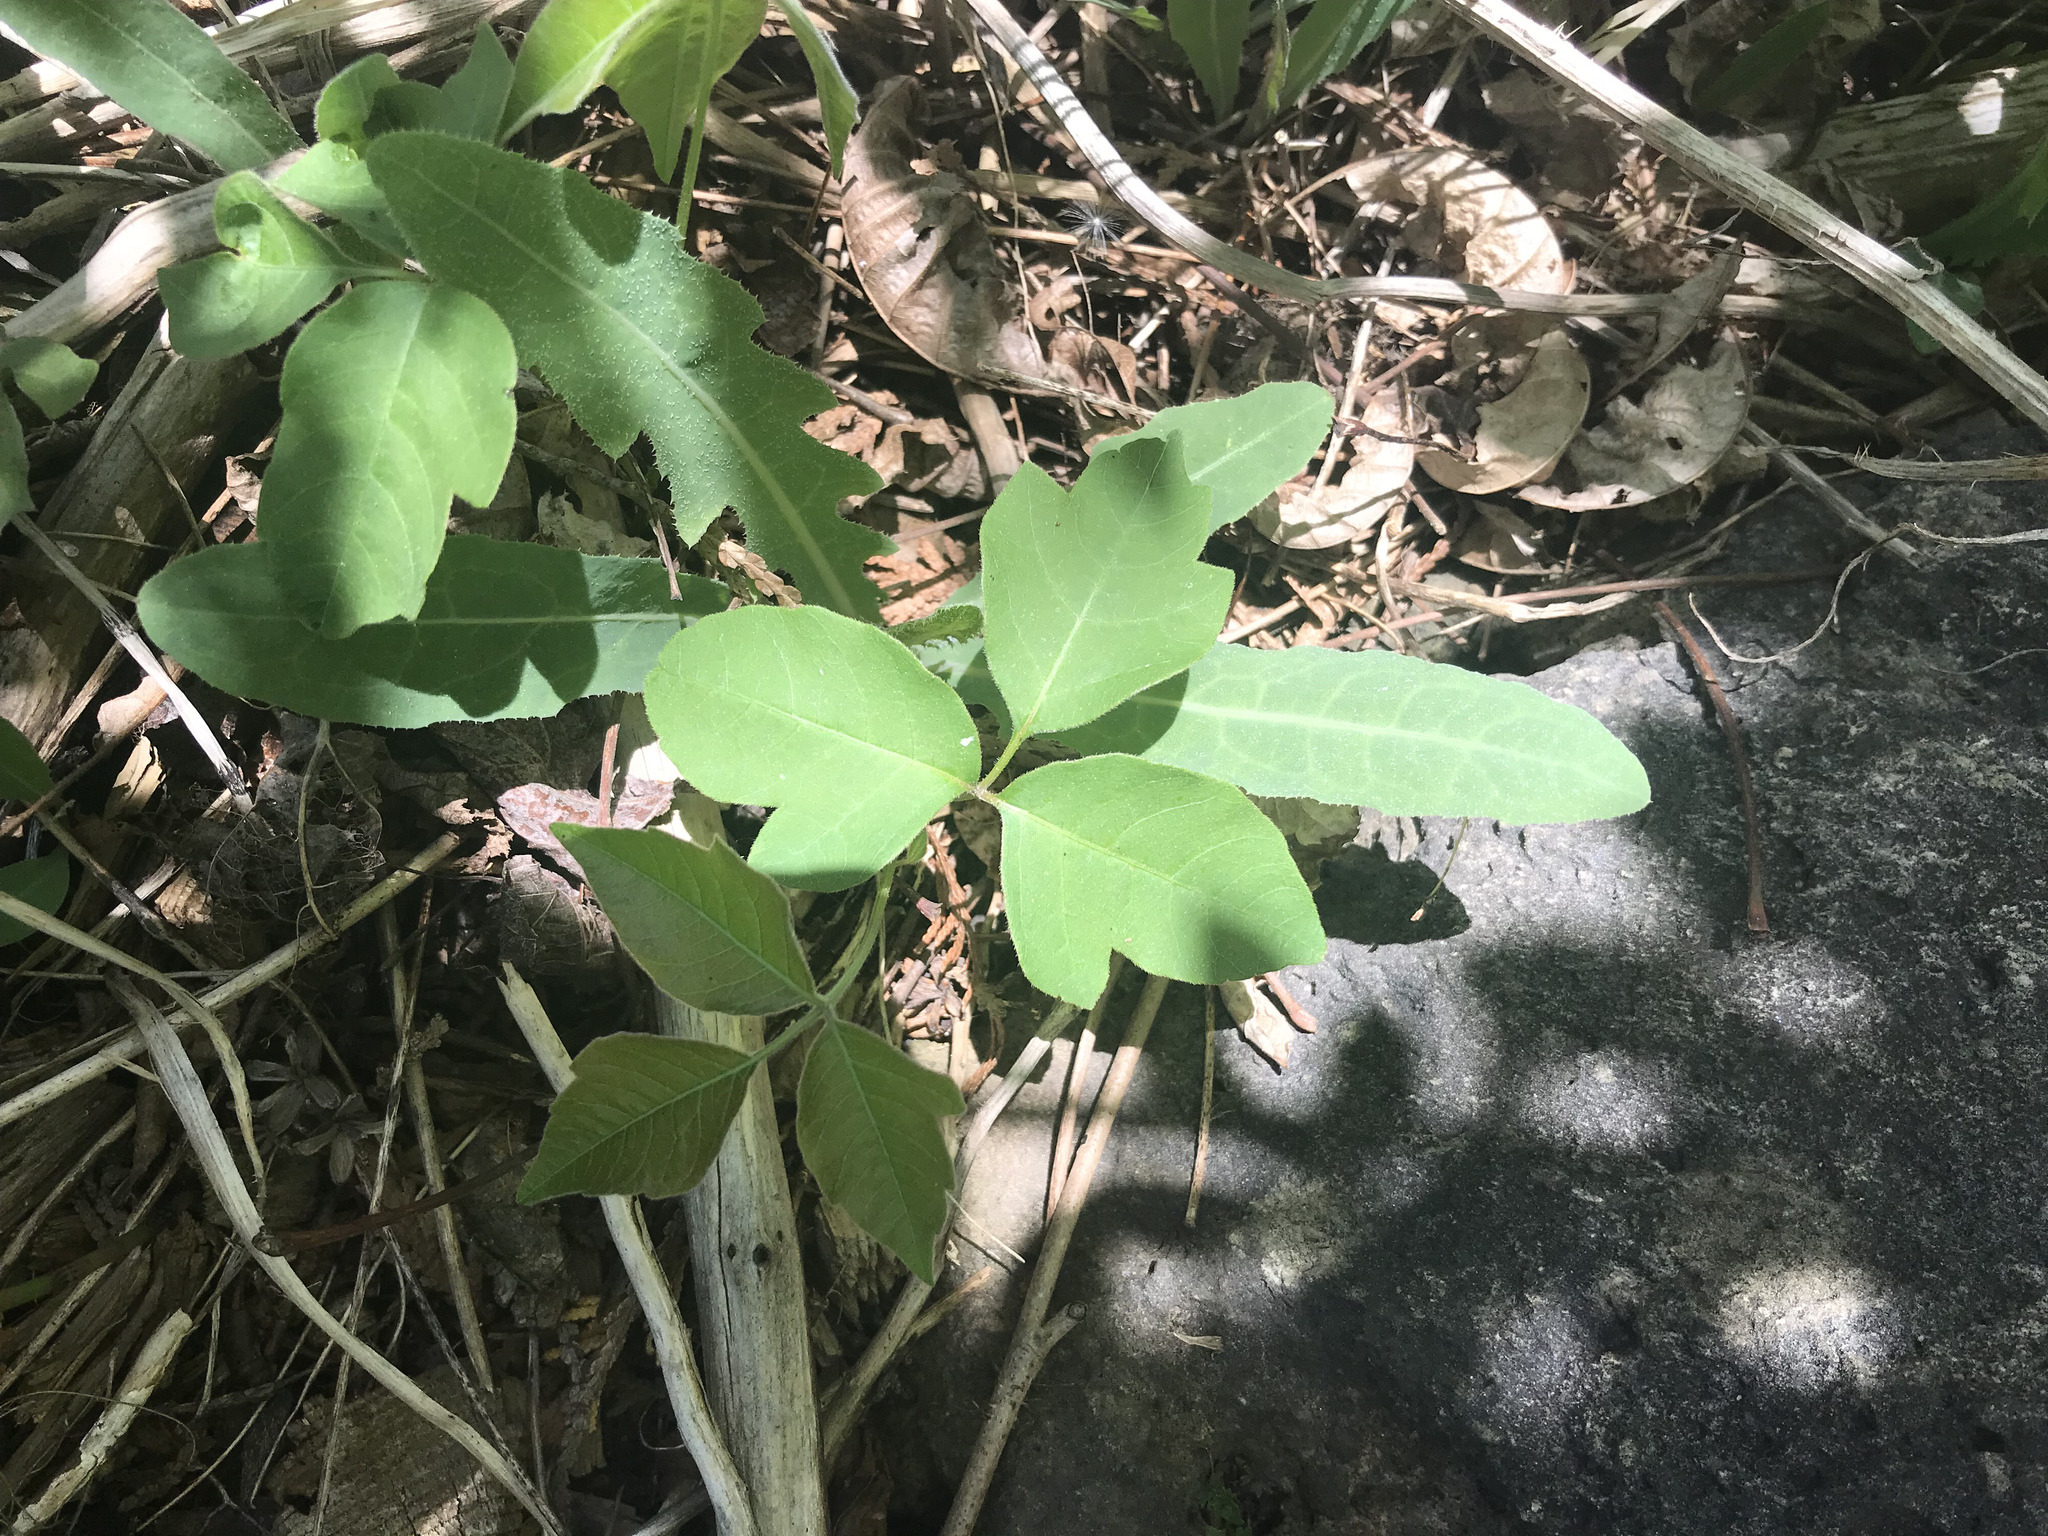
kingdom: Plantae
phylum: Tracheophyta
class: Magnoliopsida
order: Sapindales
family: Anacardiaceae
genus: Toxicodendron
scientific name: Toxicodendron radicans
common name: Poison ivy
